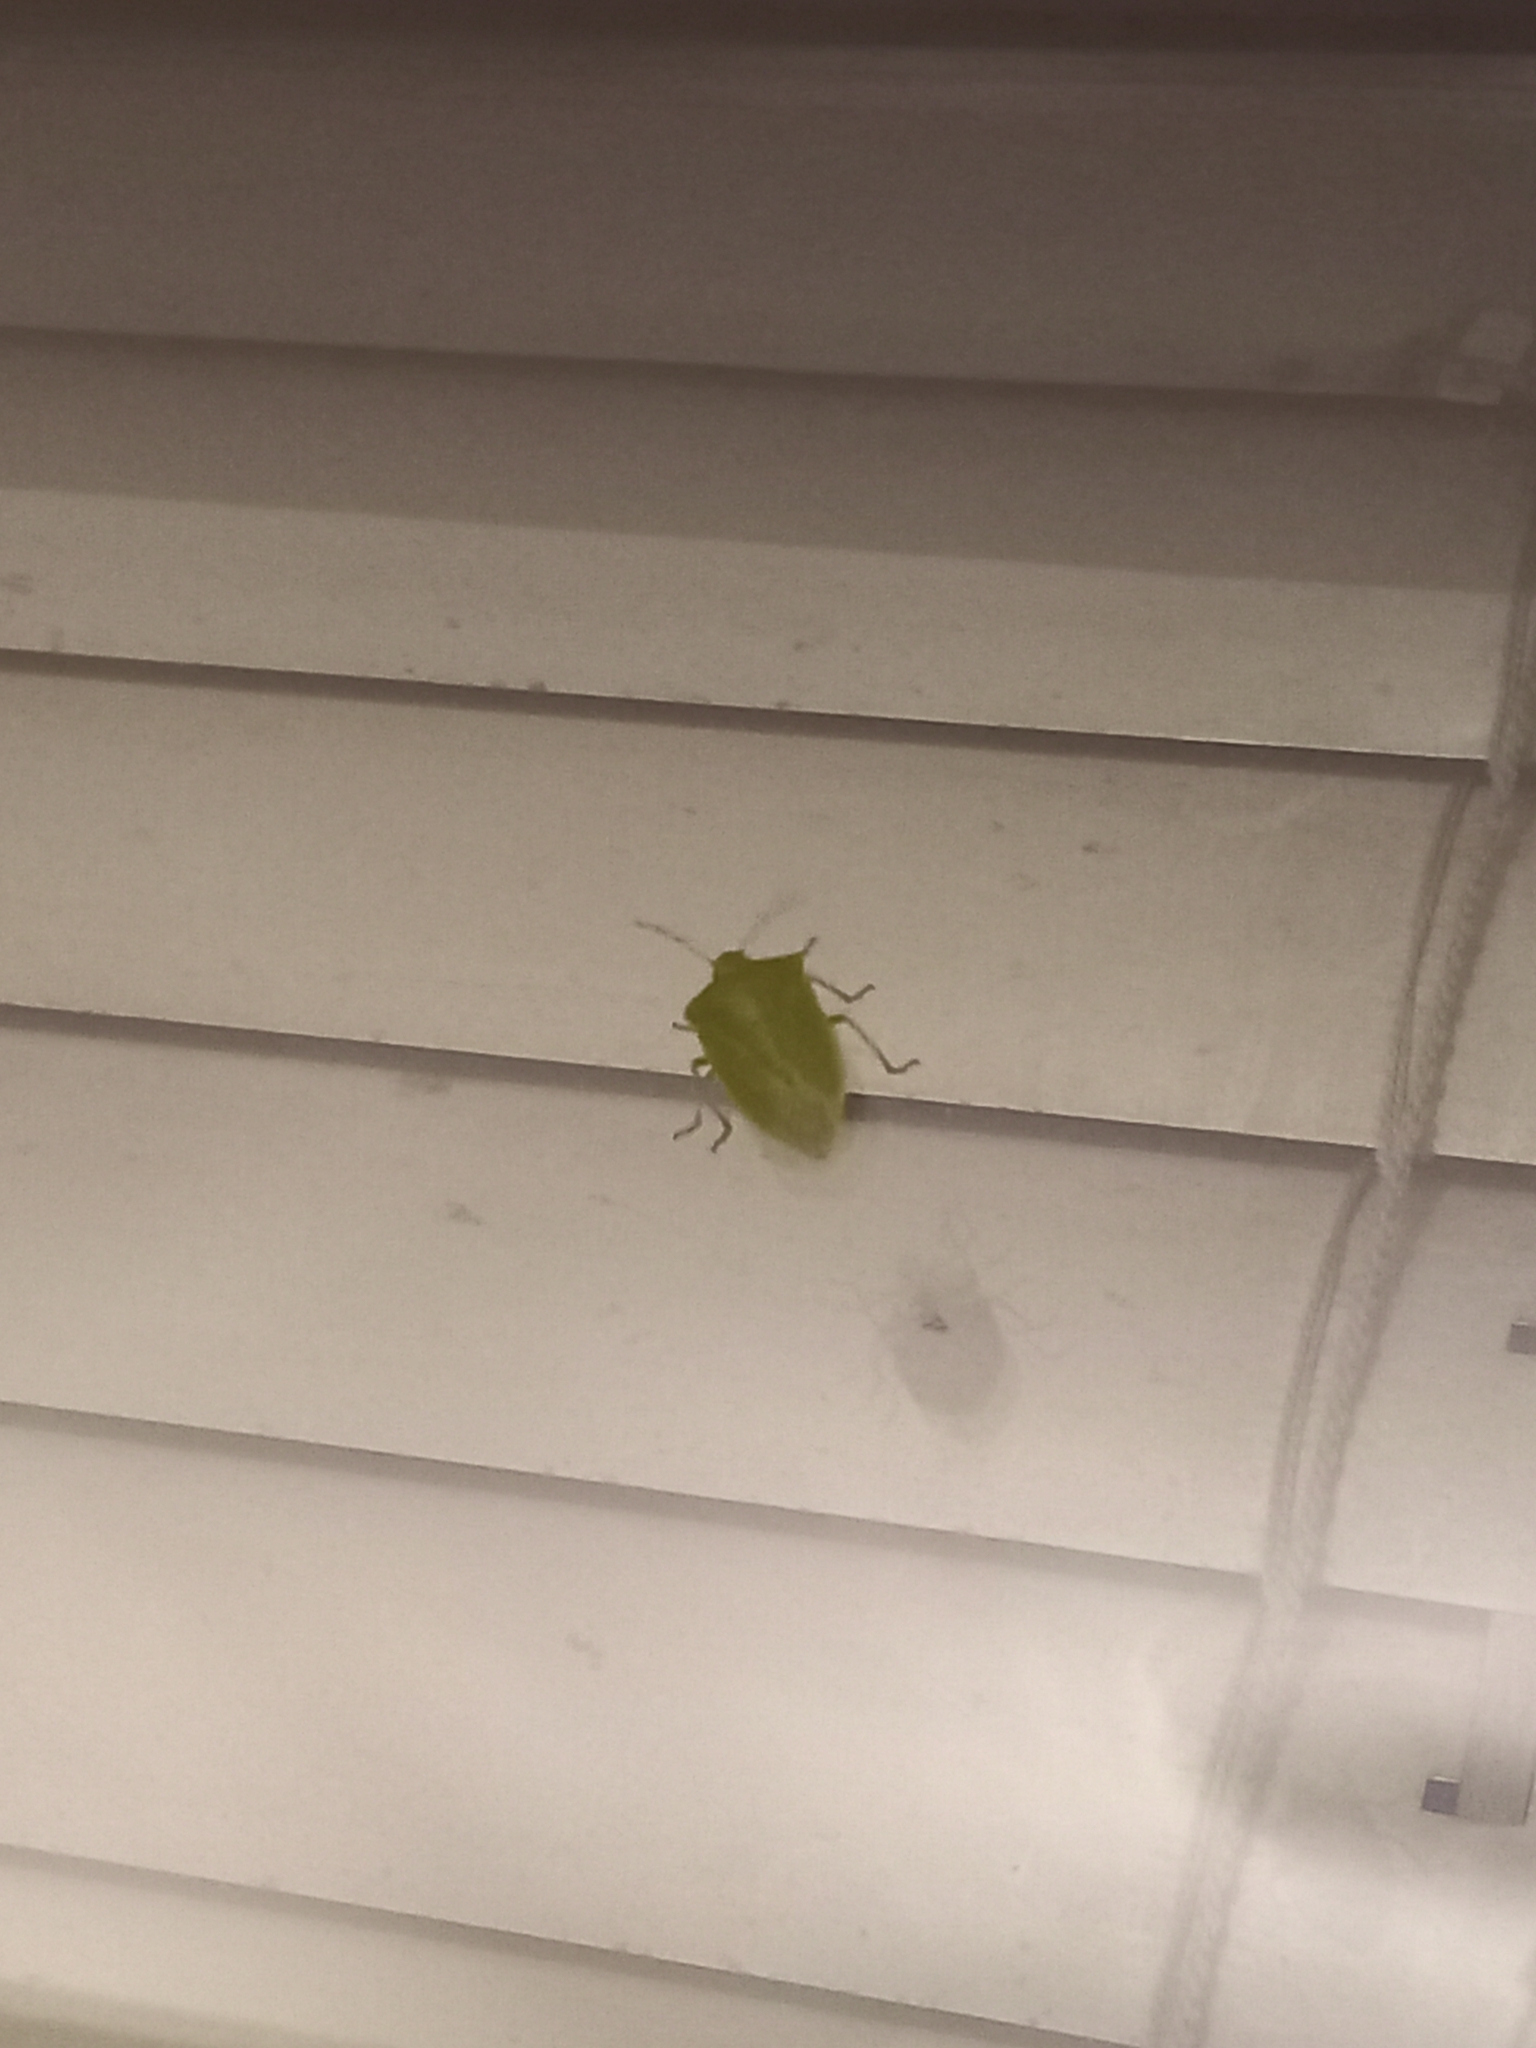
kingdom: Animalia
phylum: Arthropoda
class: Insecta
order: Hemiptera
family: Pentatomidae
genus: Nezara
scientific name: Nezara viridula
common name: Southern green stink bug
